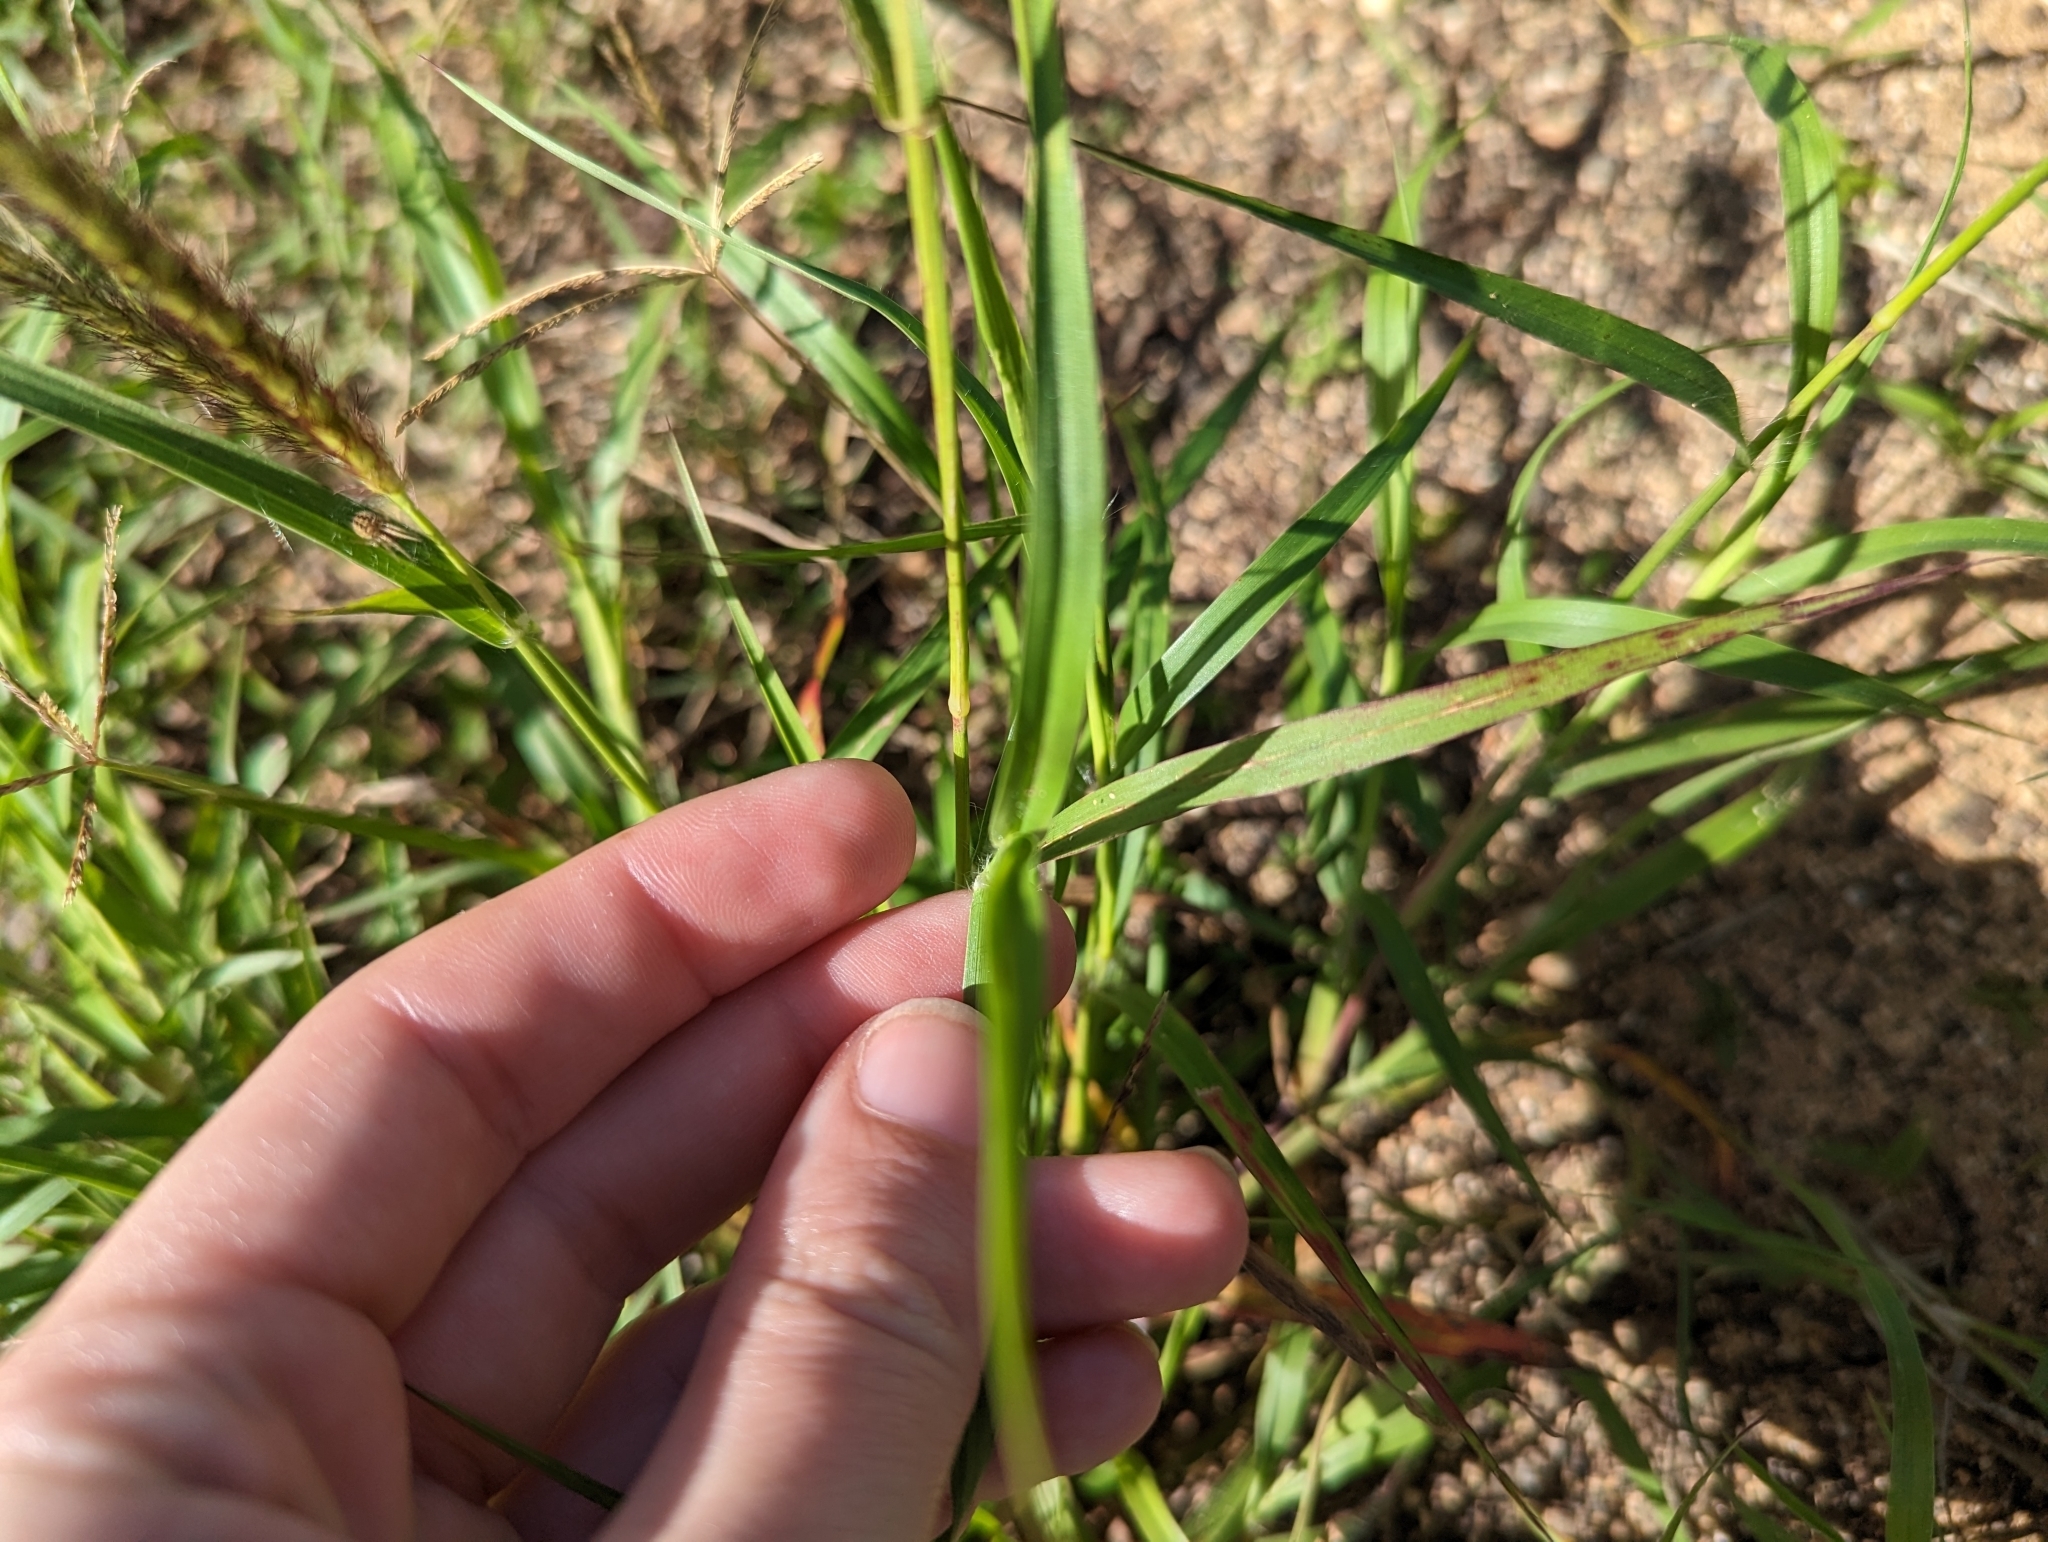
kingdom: Plantae
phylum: Tracheophyta
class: Liliopsida
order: Poales
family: Poaceae
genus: Cenchrus
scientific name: Cenchrus ciliaris
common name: Buffelgrass
